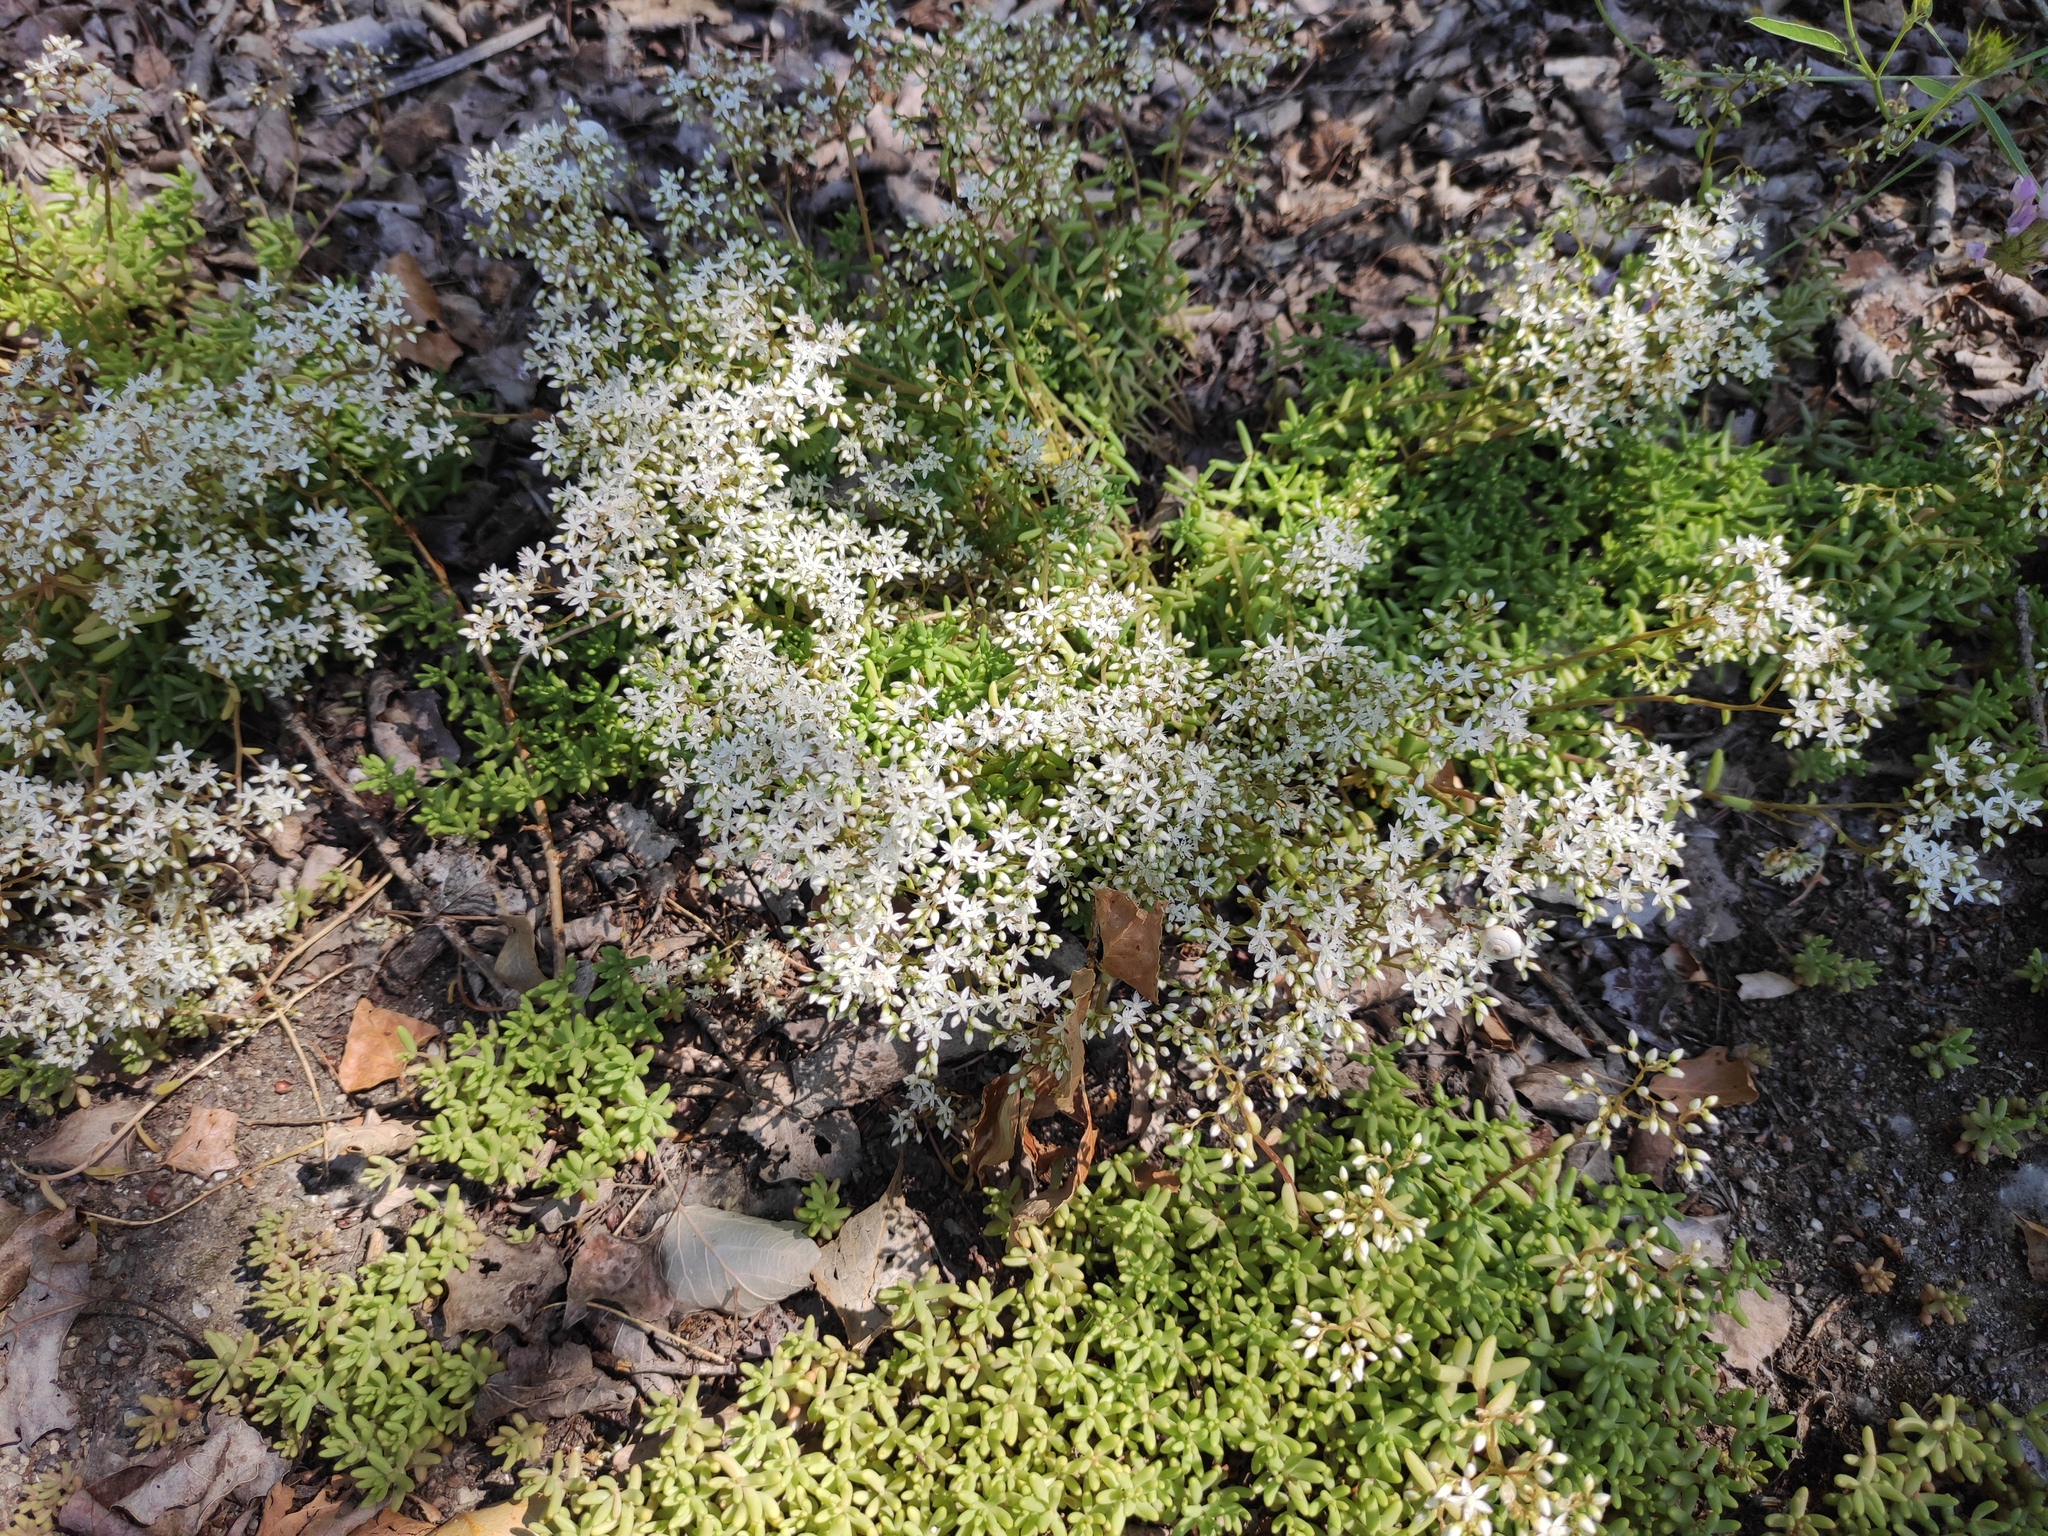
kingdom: Plantae
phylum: Tracheophyta
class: Magnoliopsida
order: Saxifragales
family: Crassulaceae
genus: Sedum
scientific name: Sedum album
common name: White stonecrop
